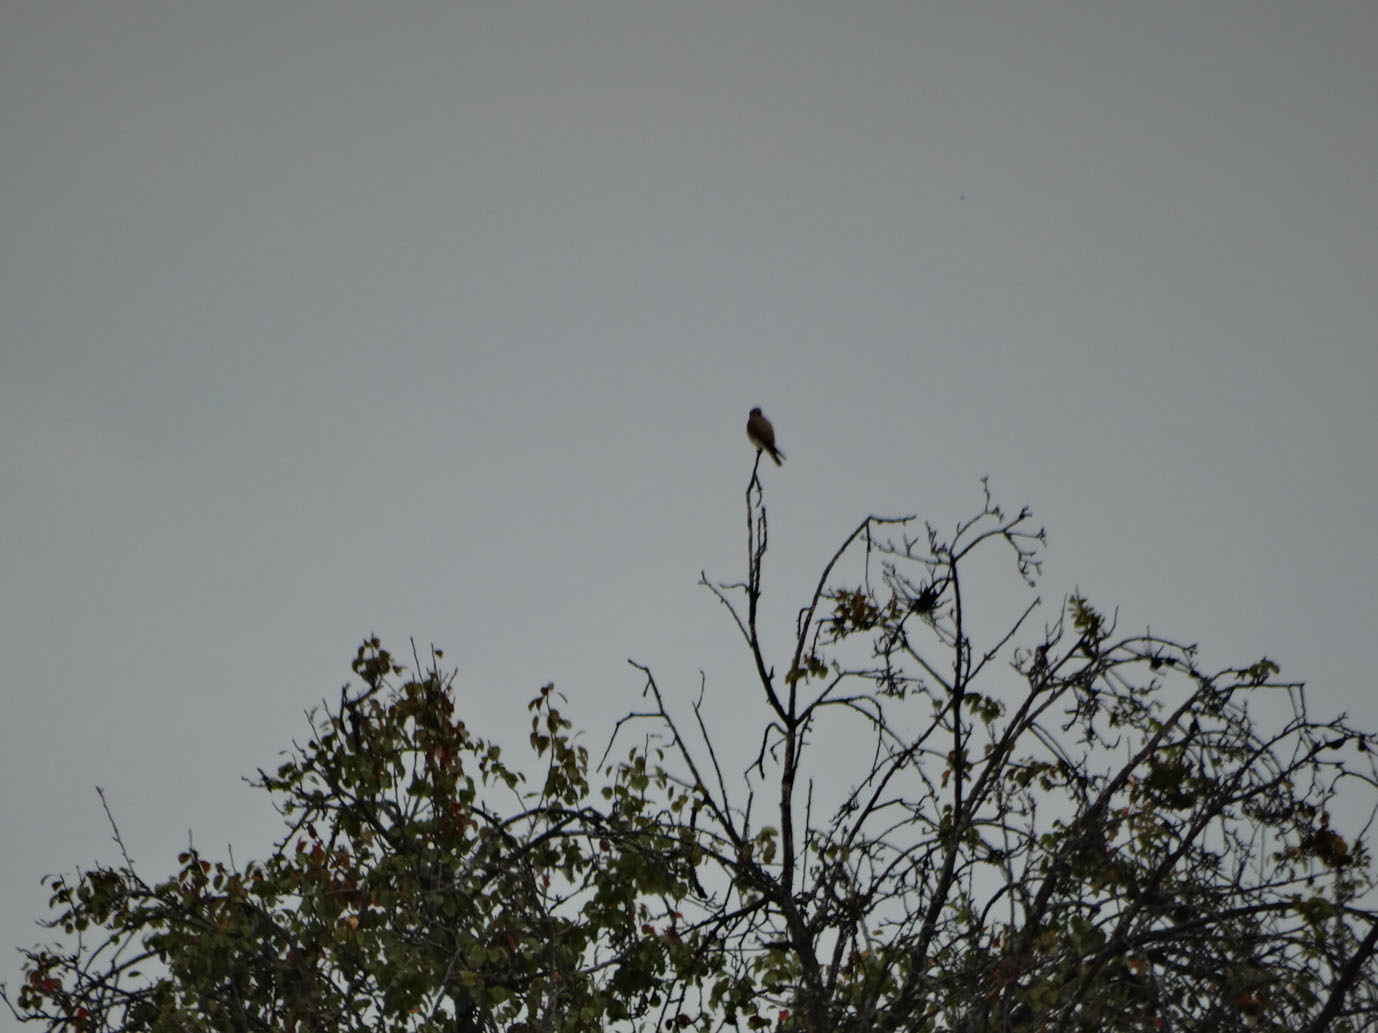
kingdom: Animalia
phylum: Chordata
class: Aves
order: Falconiformes
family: Falconidae
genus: Falco
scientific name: Falco sparverius
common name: American kestrel
